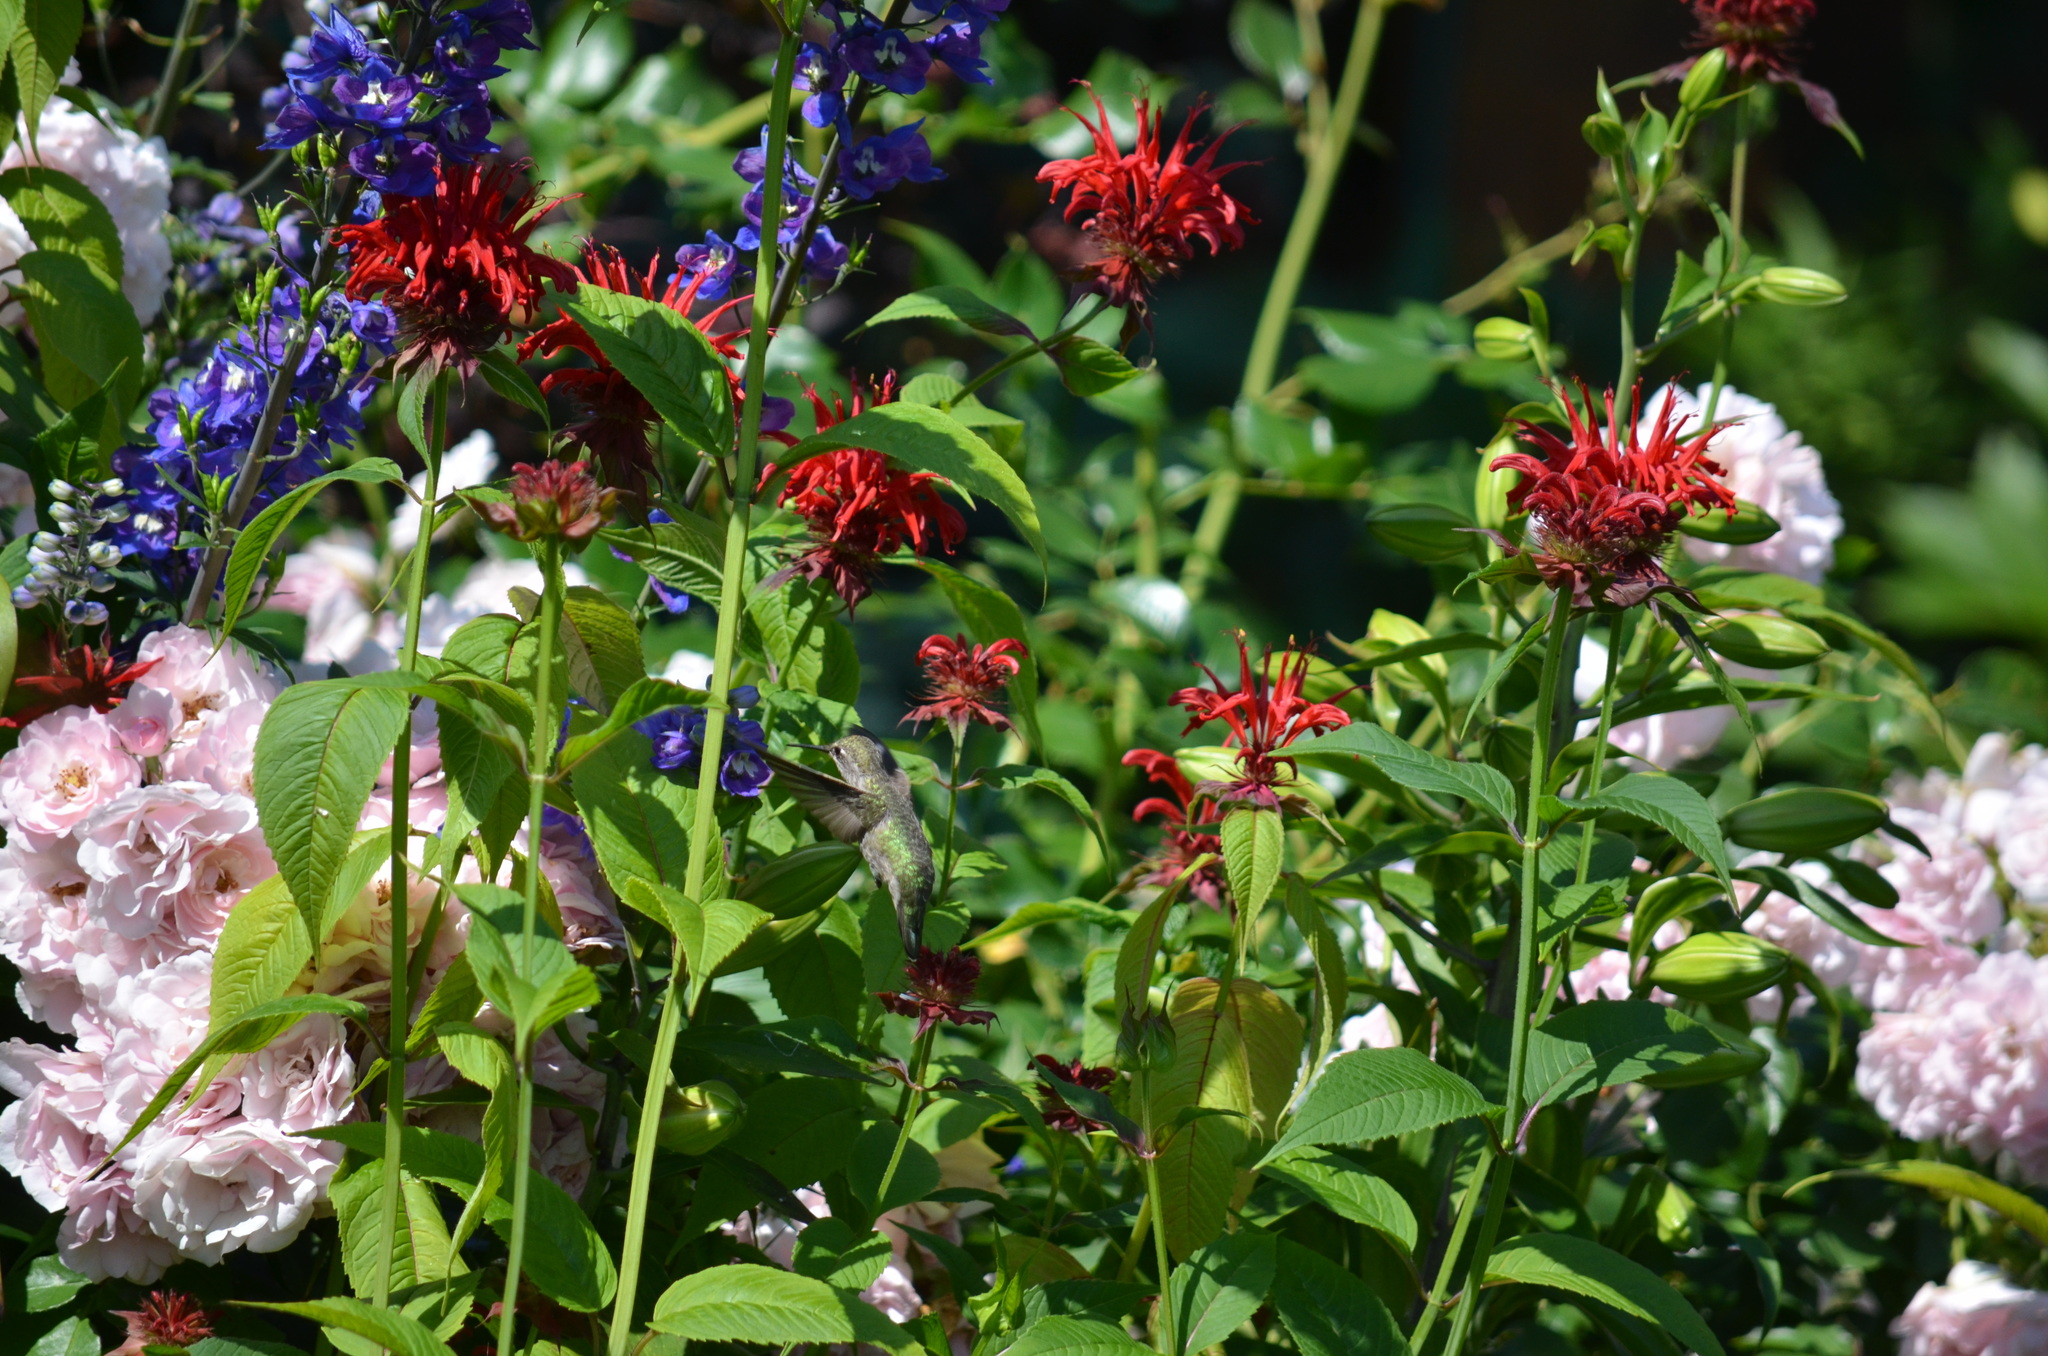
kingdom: Animalia
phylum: Chordata
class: Aves
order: Apodiformes
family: Trochilidae
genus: Calypte
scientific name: Calypte anna
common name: Anna's hummingbird
